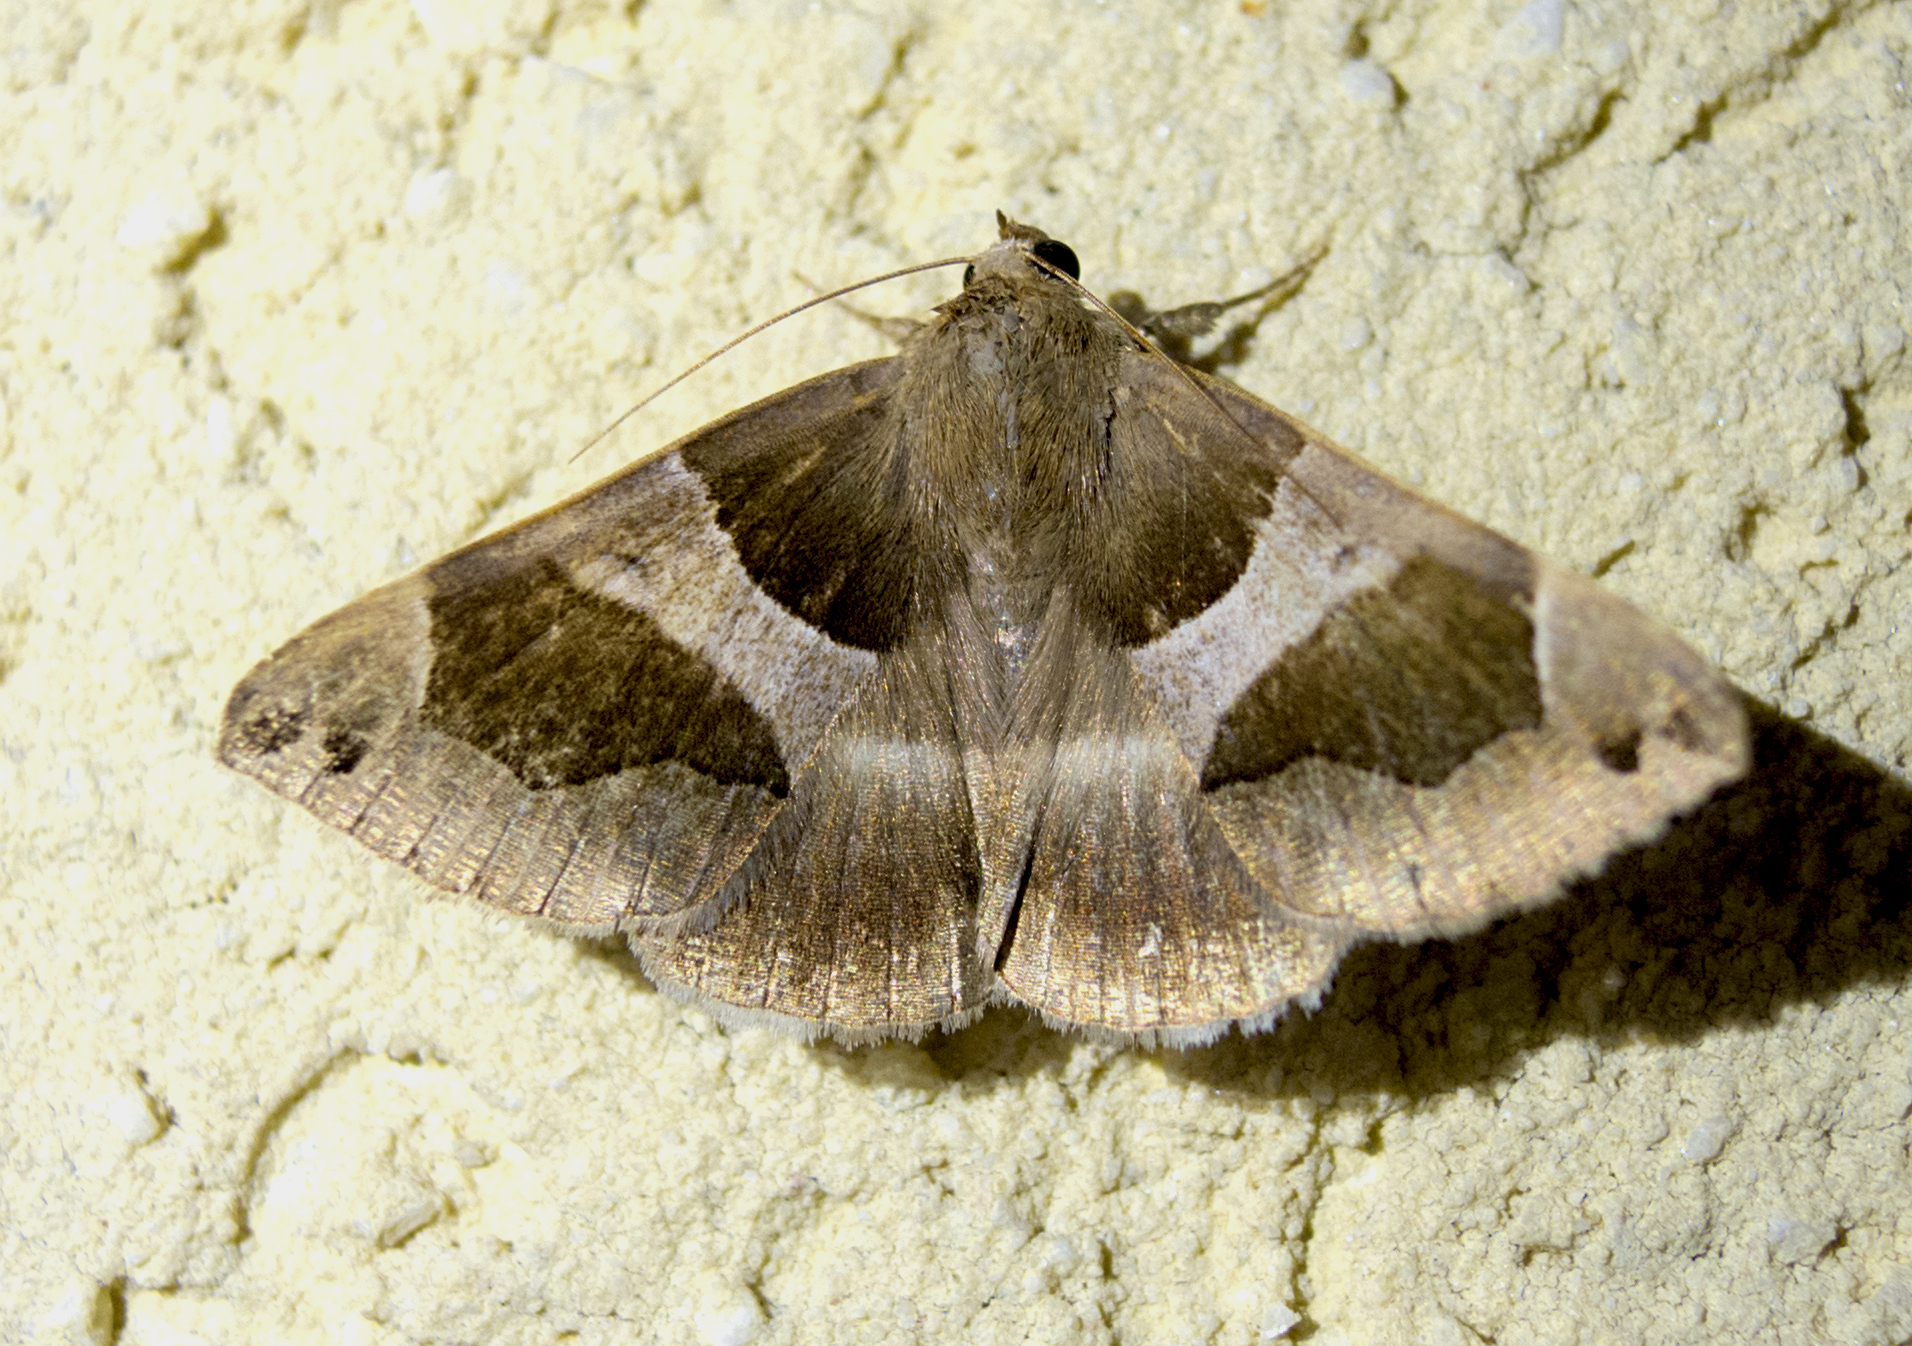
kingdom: Animalia
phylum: Arthropoda
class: Insecta
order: Lepidoptera
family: Erebidae
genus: Dysgonia
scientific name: Dysgonia algira
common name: Passenger
